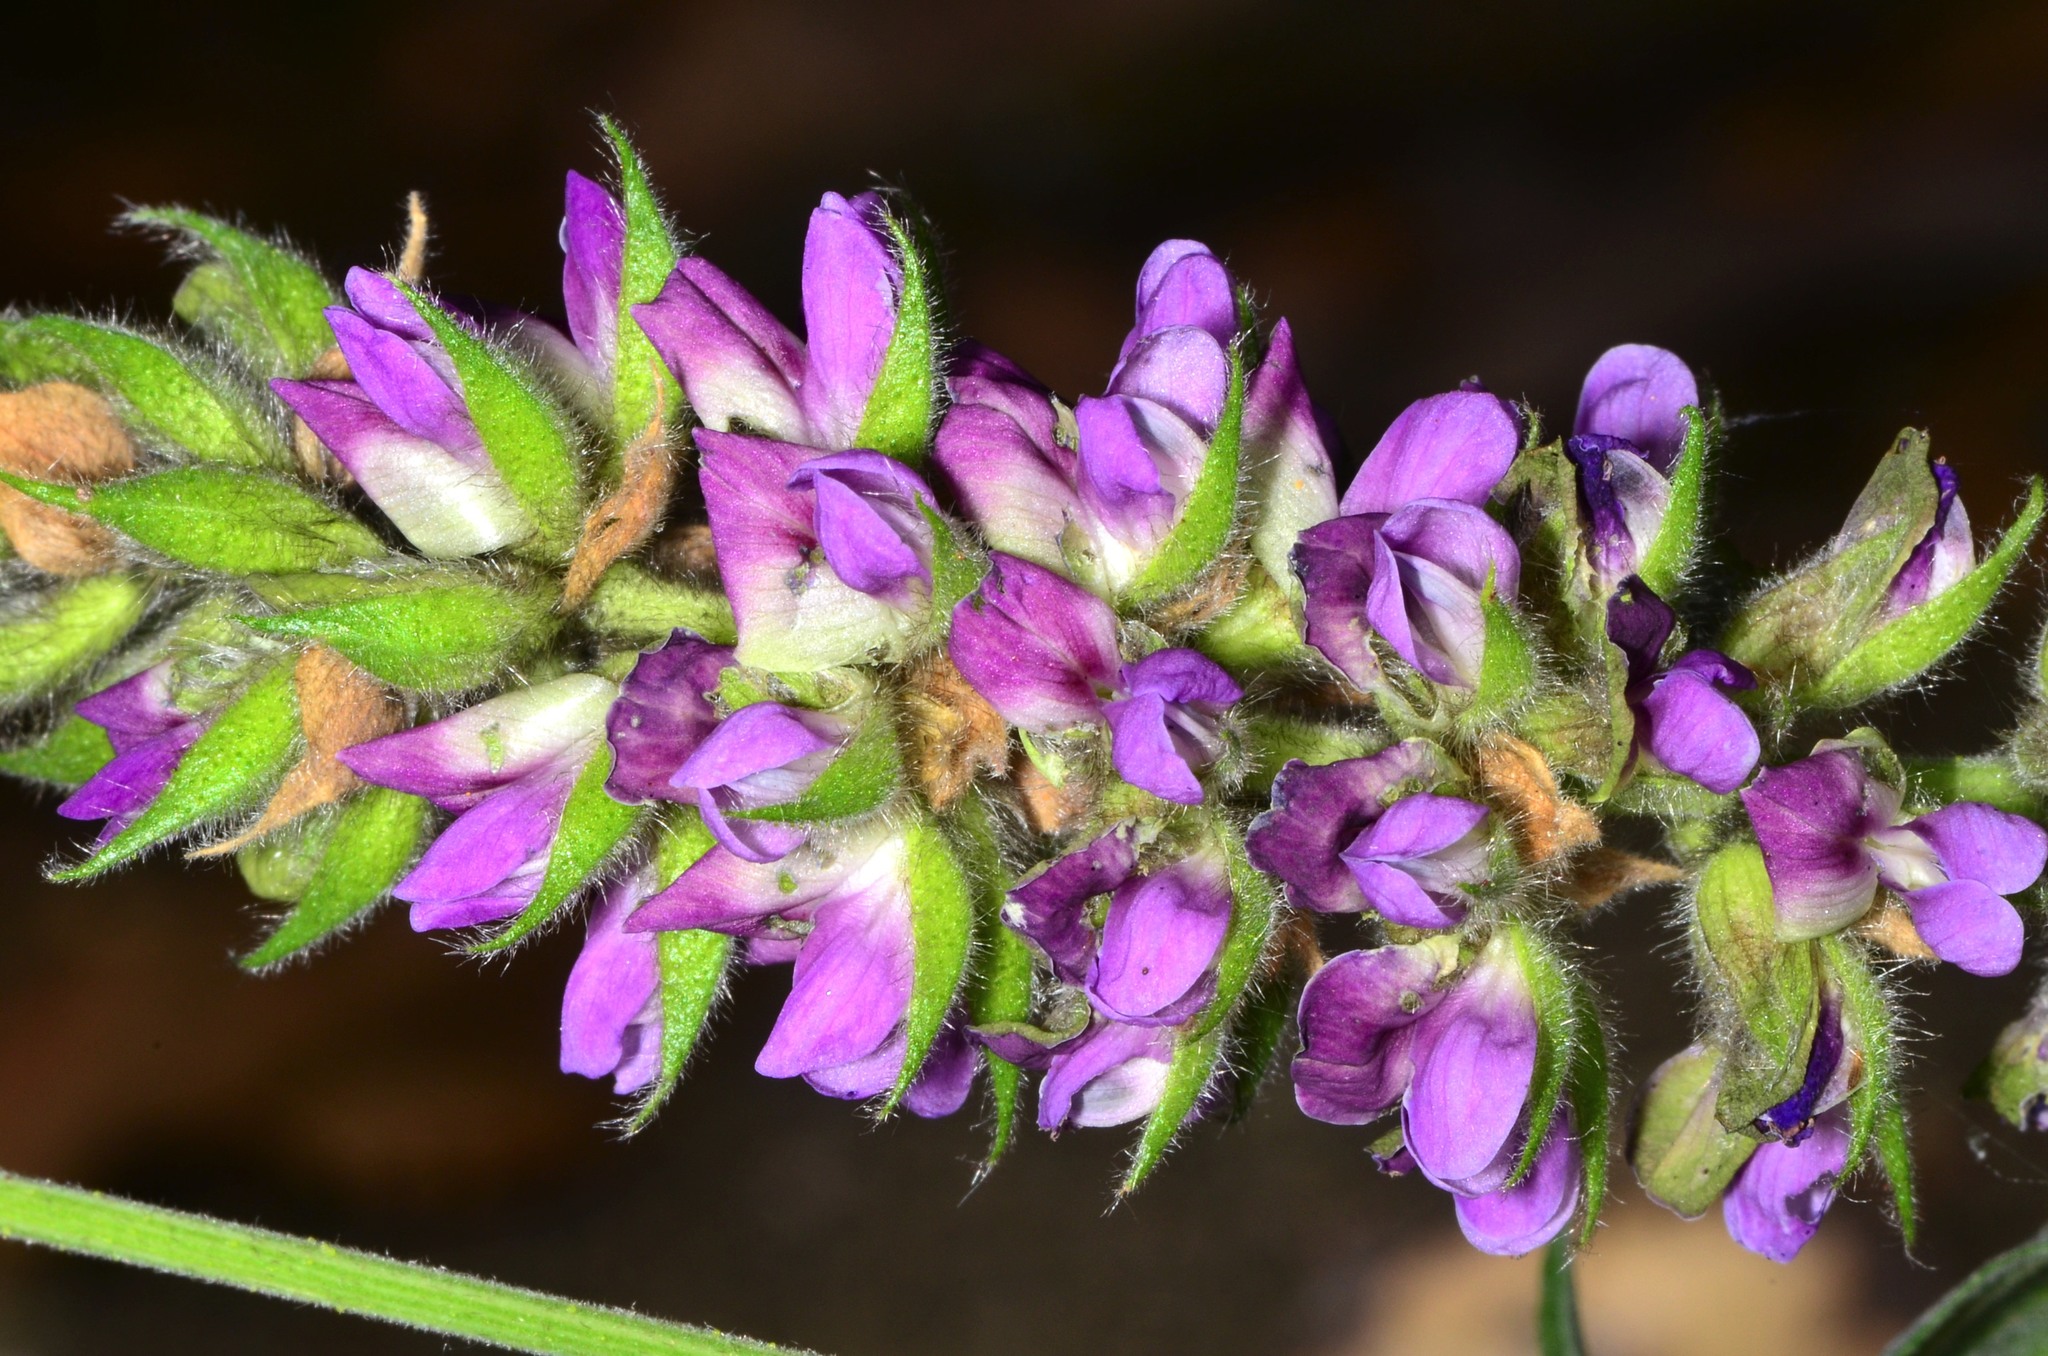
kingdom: Plantae
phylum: Tracheophyta
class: Magnoliopsida
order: Fabales
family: Fabaceae
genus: Hoita
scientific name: Hoita macrostachya
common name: Leatherroot
